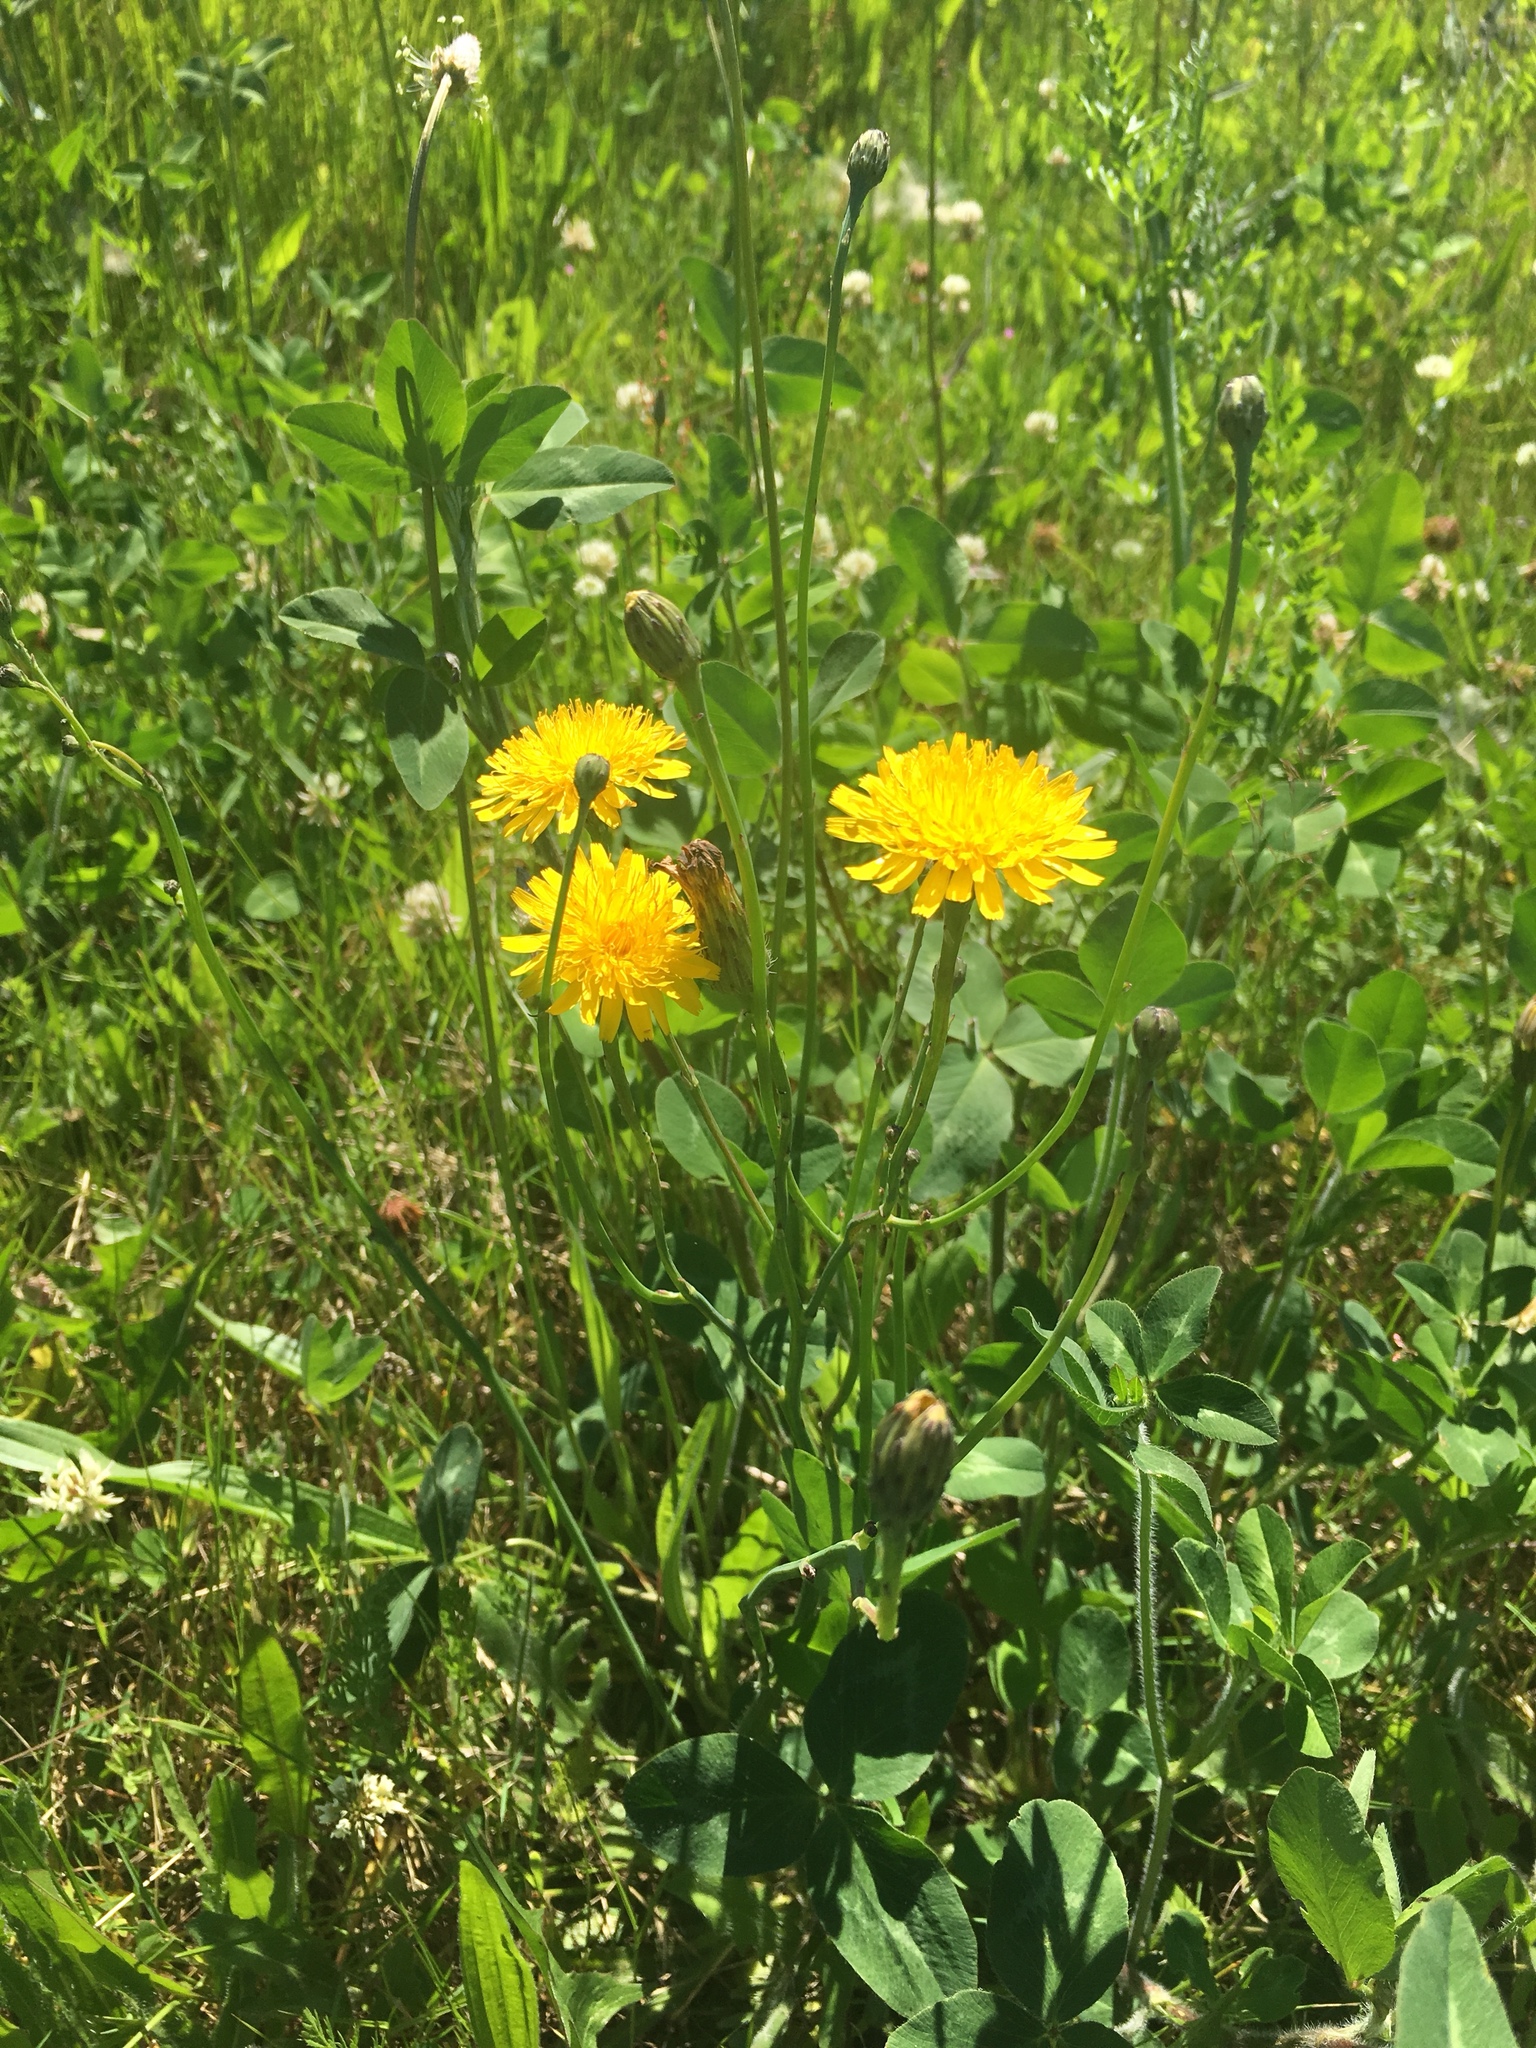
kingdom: Plantae
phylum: Tracheophyta
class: Magnoliopsida
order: Asterales
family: Asteraceae
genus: Hypochaeris
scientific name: Hypochaeris radicata
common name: Flatweed
